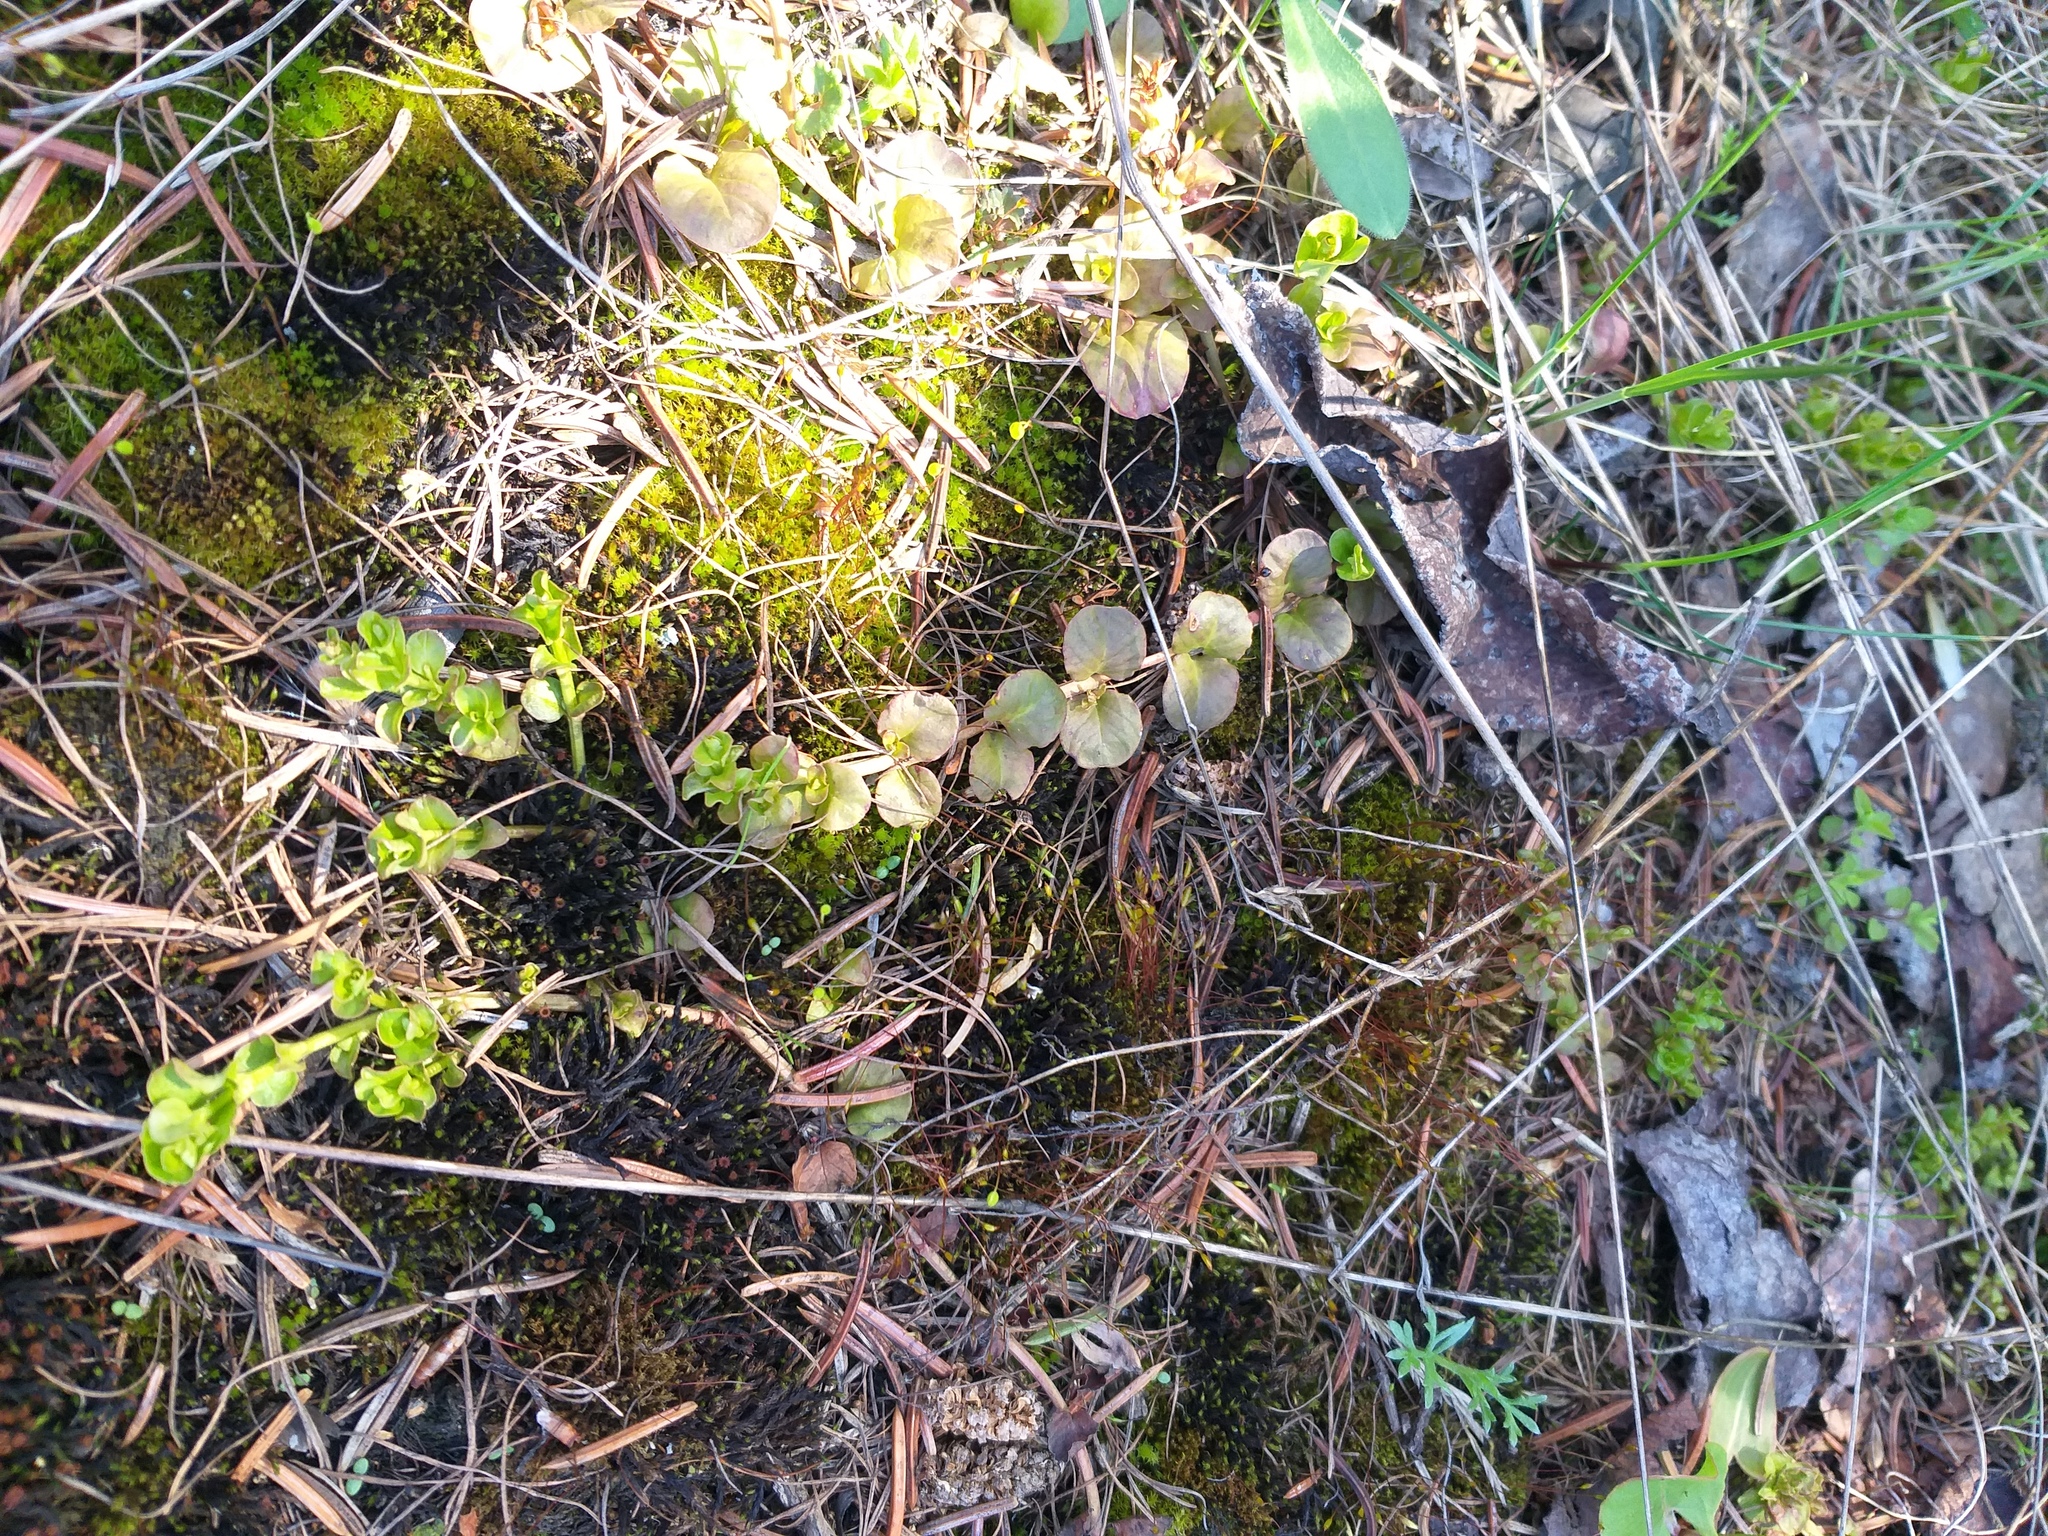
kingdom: Plantae
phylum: Tracheophyta
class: Magnoliopsida
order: Ericales
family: Primulaceae
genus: Lysimachia
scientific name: Lysimachia nummularia
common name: Moneywort
